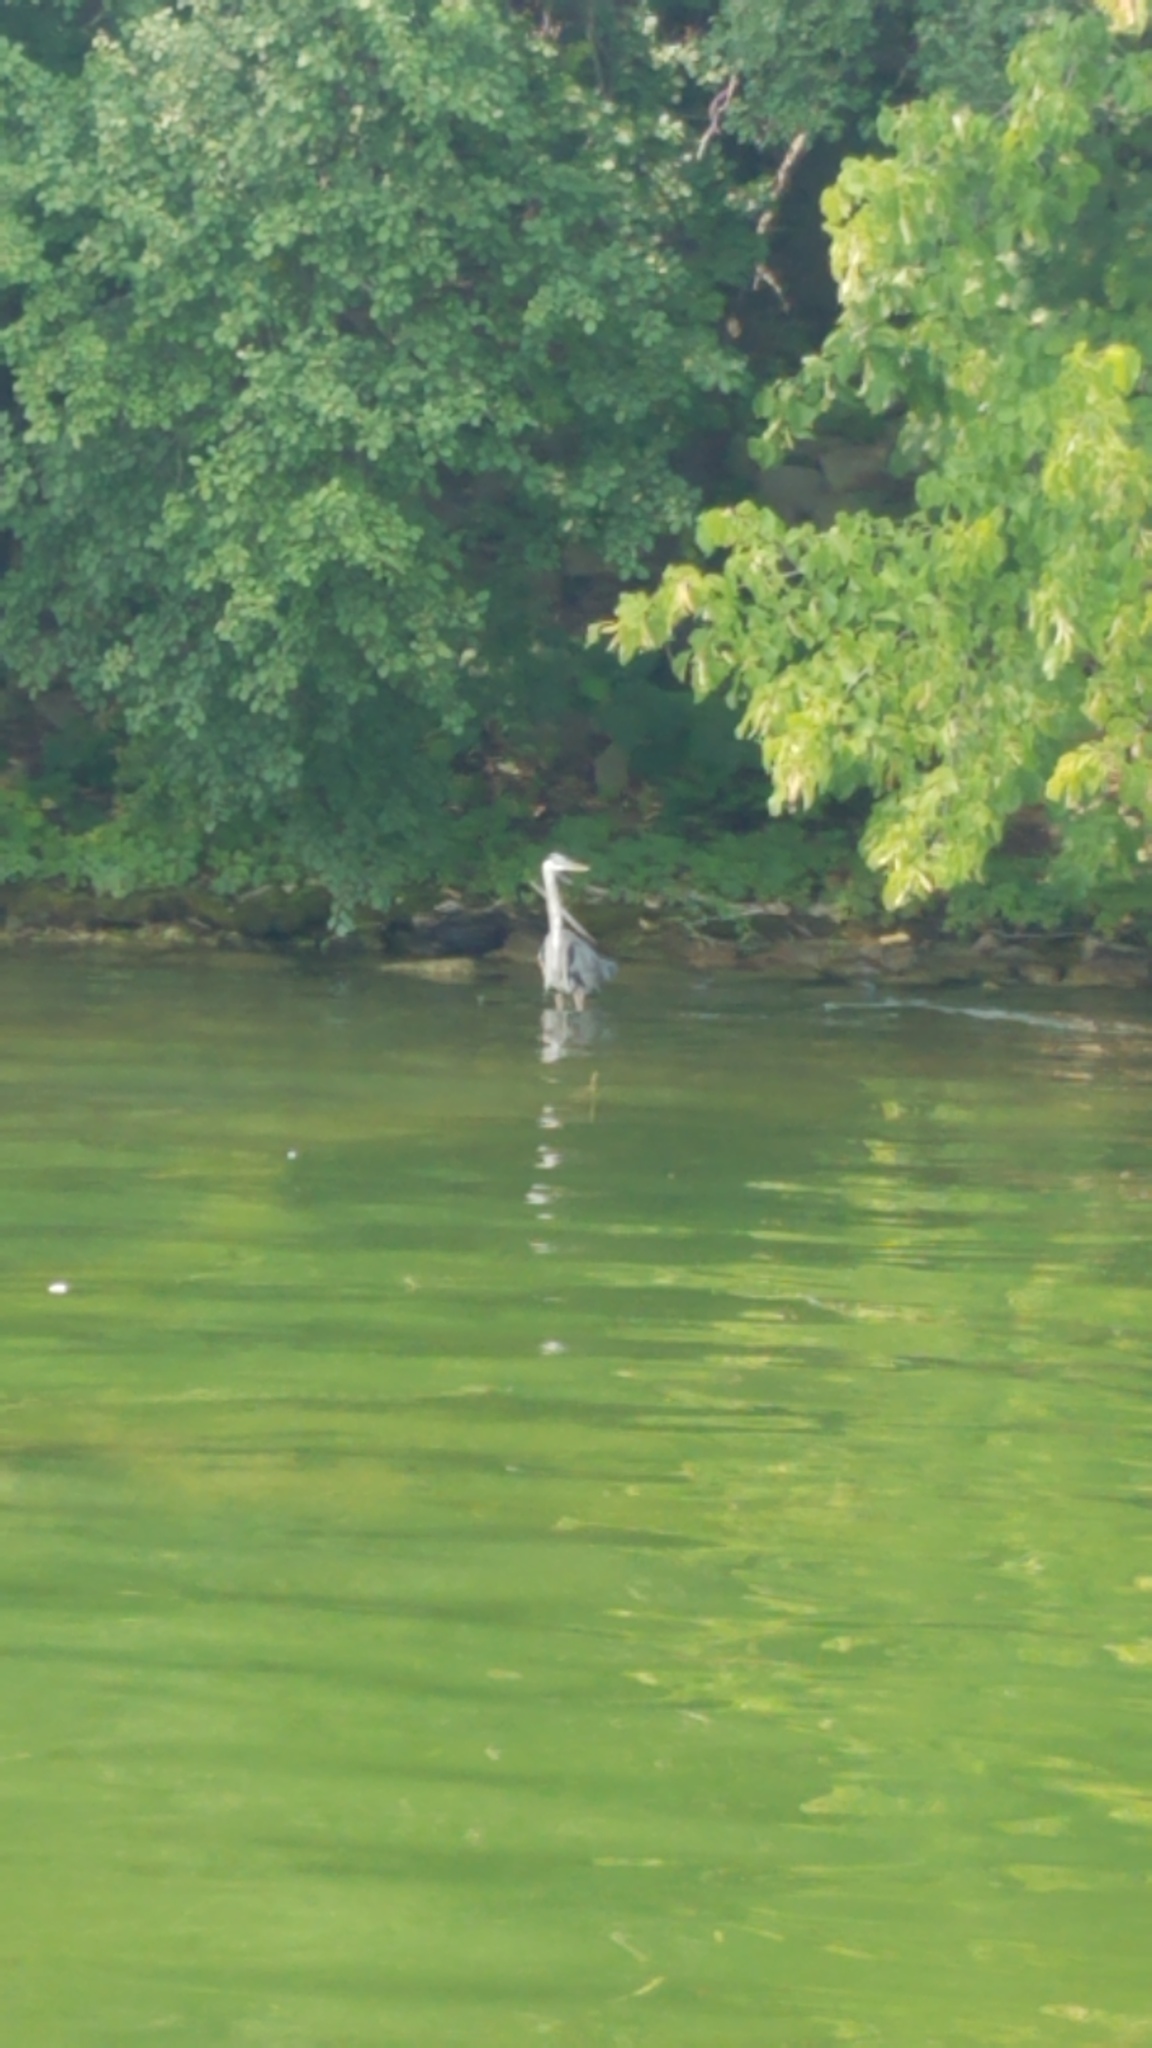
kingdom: Animalia
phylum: Chordata
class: Aves
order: Pelecaniformes
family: Ardeidae
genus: Ardea
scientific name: Ardea herodias
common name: Great blue heron
